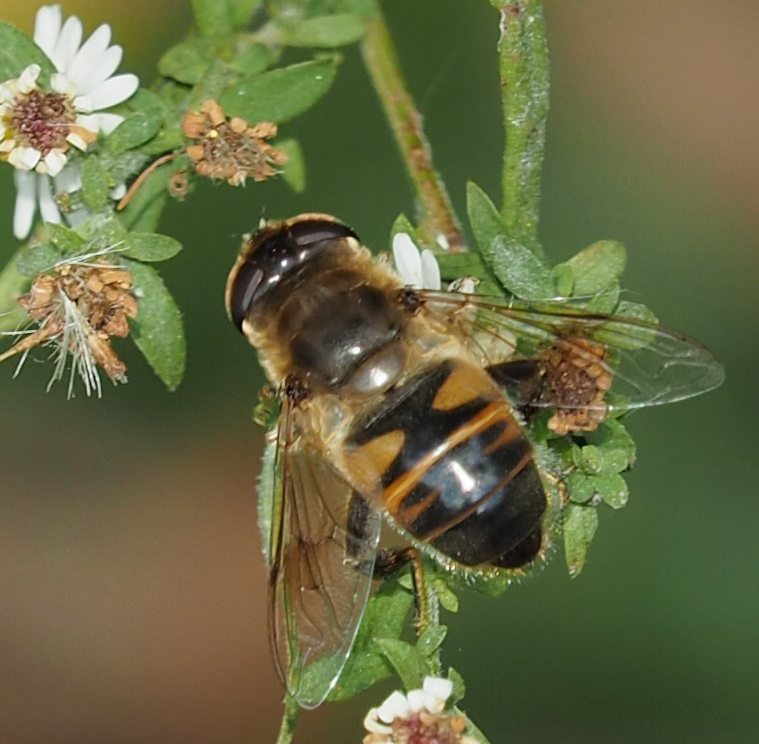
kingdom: Animalia
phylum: Arthropoda
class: Insecta
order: Diptera
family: Syrphidae
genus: Eristalis
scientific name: Eristalis tenax
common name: Drone fly
